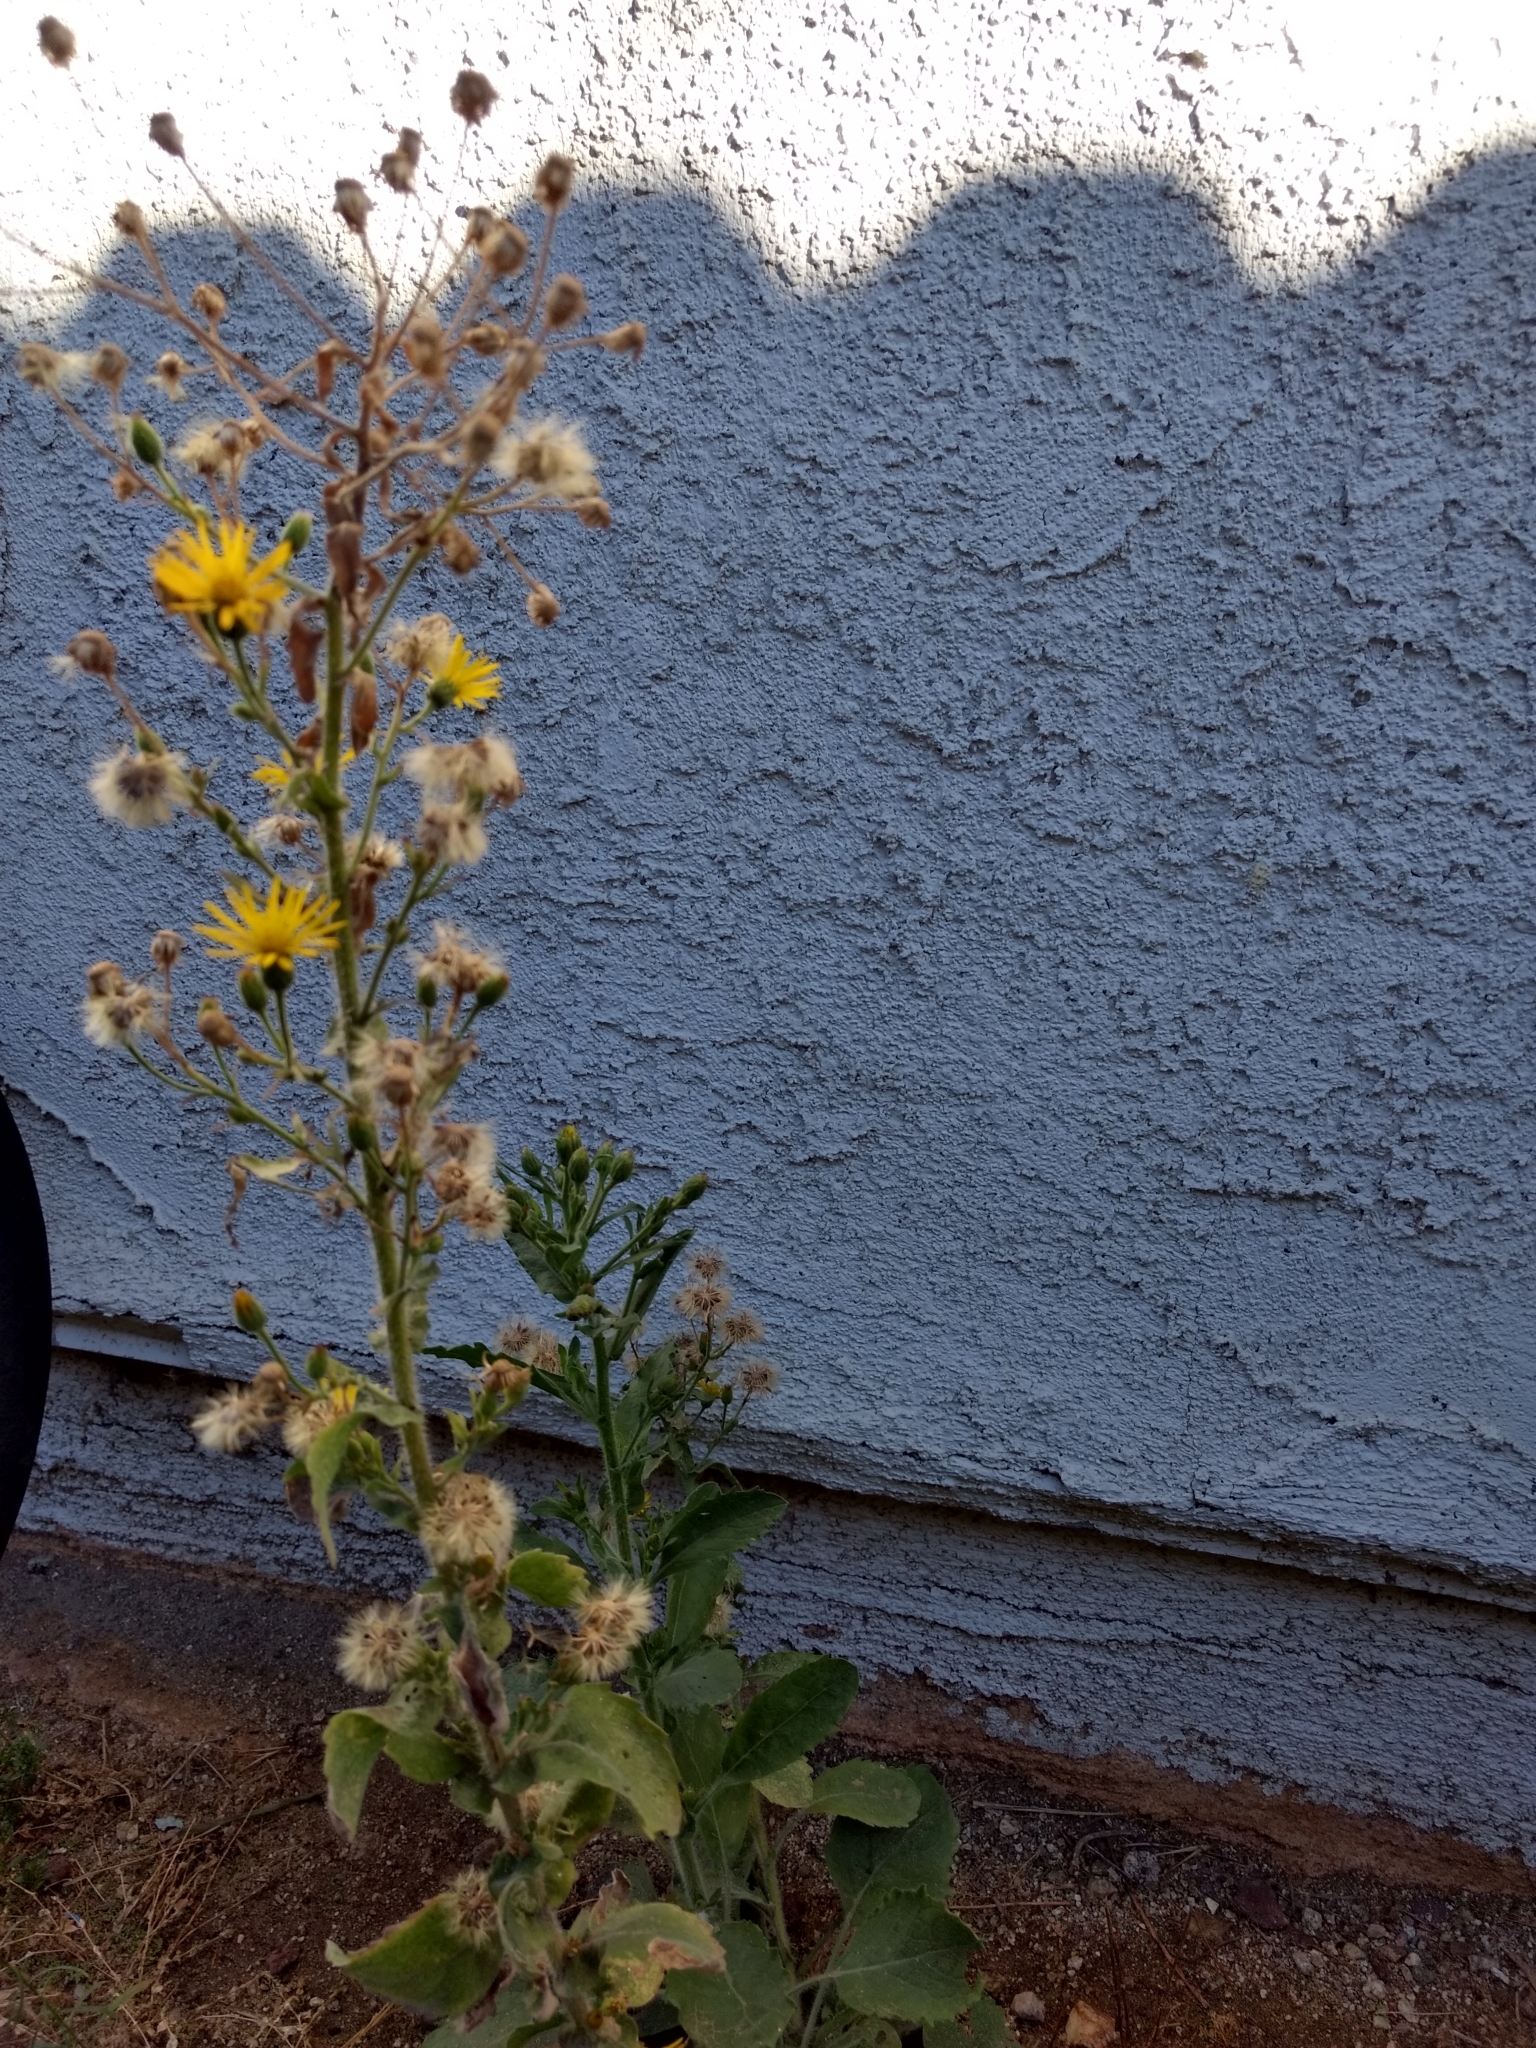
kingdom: Plantae
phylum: Tracheophyta
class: Magnoliopsida
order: Asterales
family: Asteraceae
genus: Heterotheca
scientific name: Heterotheca grandiflora
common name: Telegraphweed
